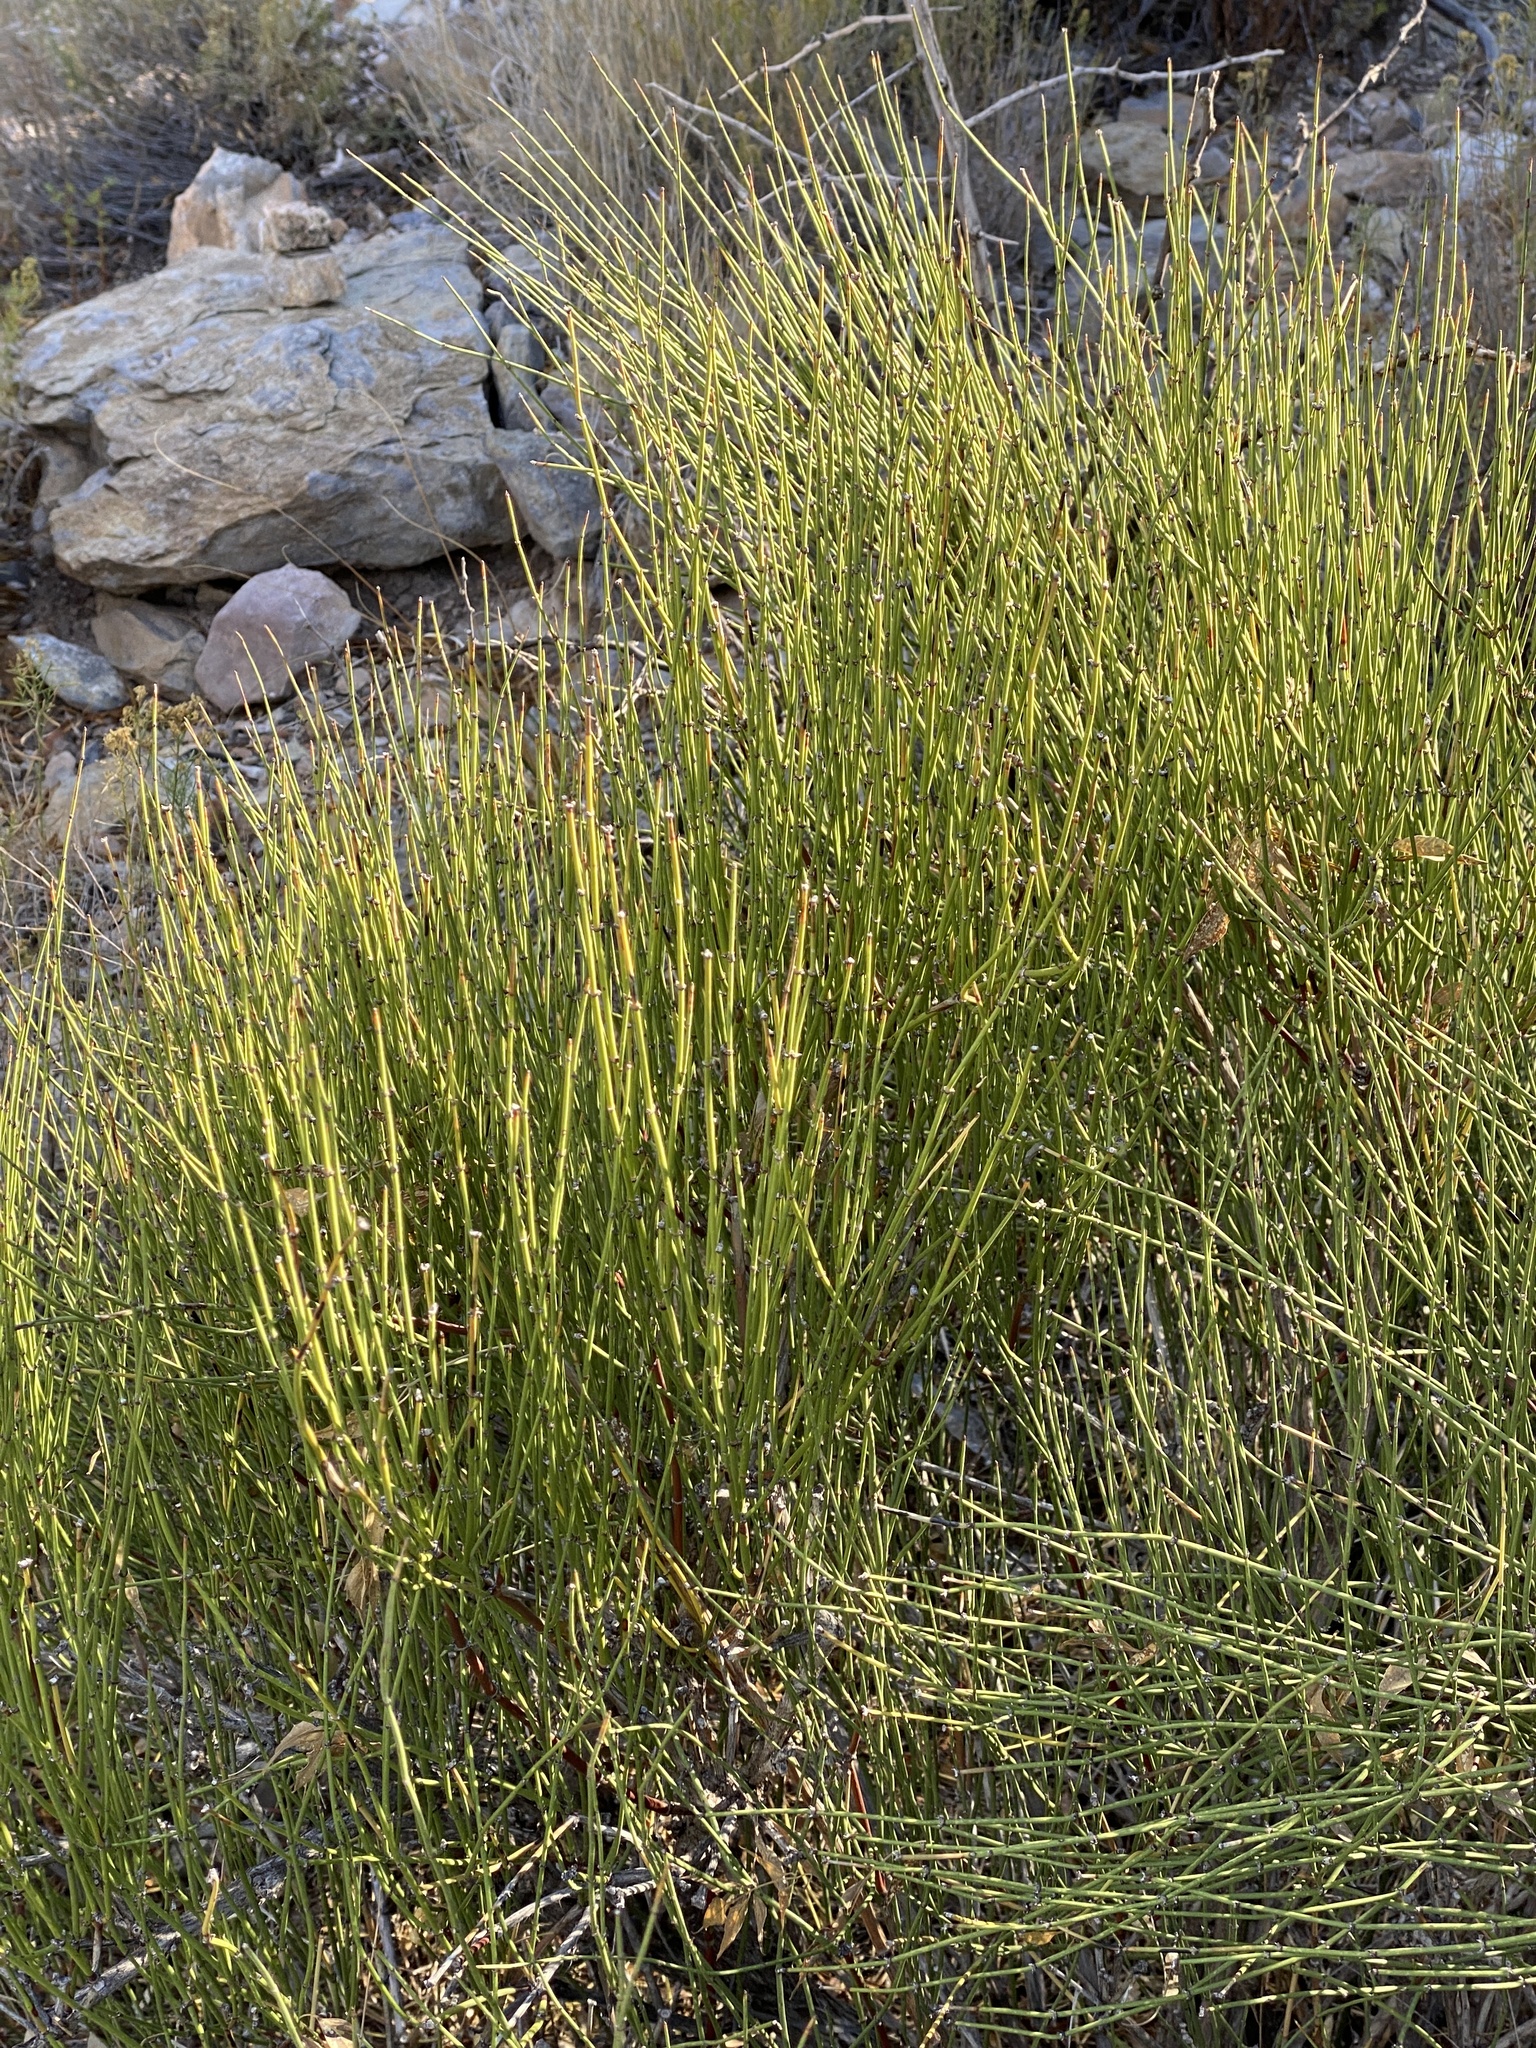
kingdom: Plantae
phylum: Tracheophyta
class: Gnetopsida
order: Ephedrales
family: Ephedraceae
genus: Ephedra
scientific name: Ephedra viridis
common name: Green ephedra
